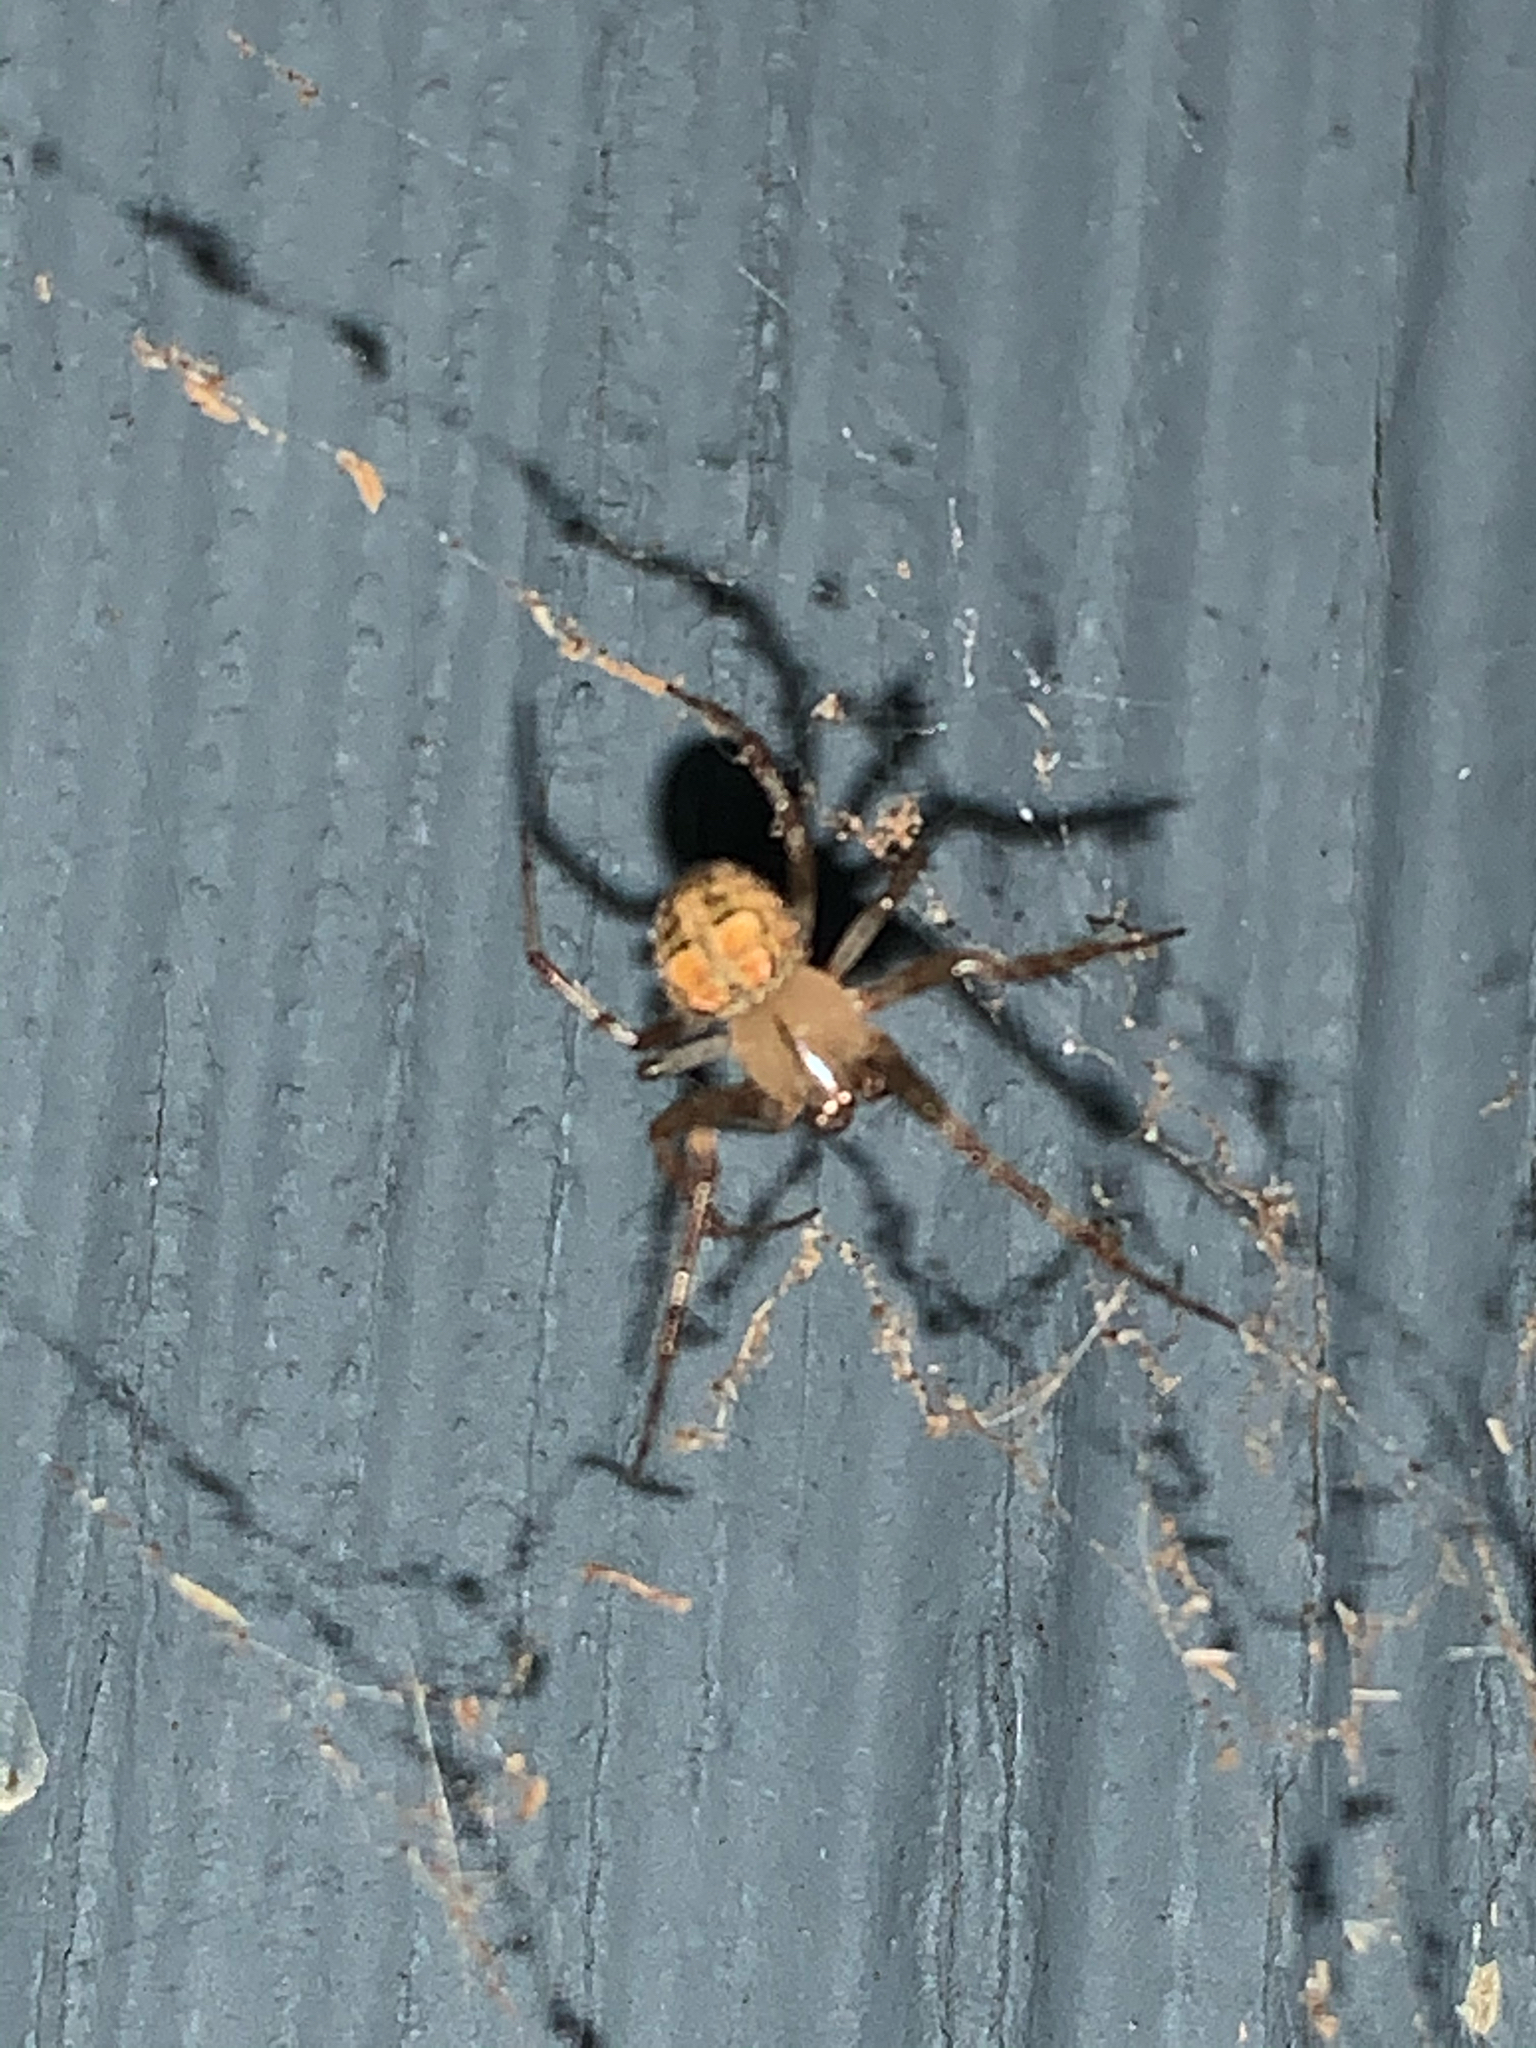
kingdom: Animalia
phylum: Arthropoda
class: Arachnida
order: Araneae
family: Araneidae
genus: Araneus
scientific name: Araneus pegnia
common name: Orb weavers
